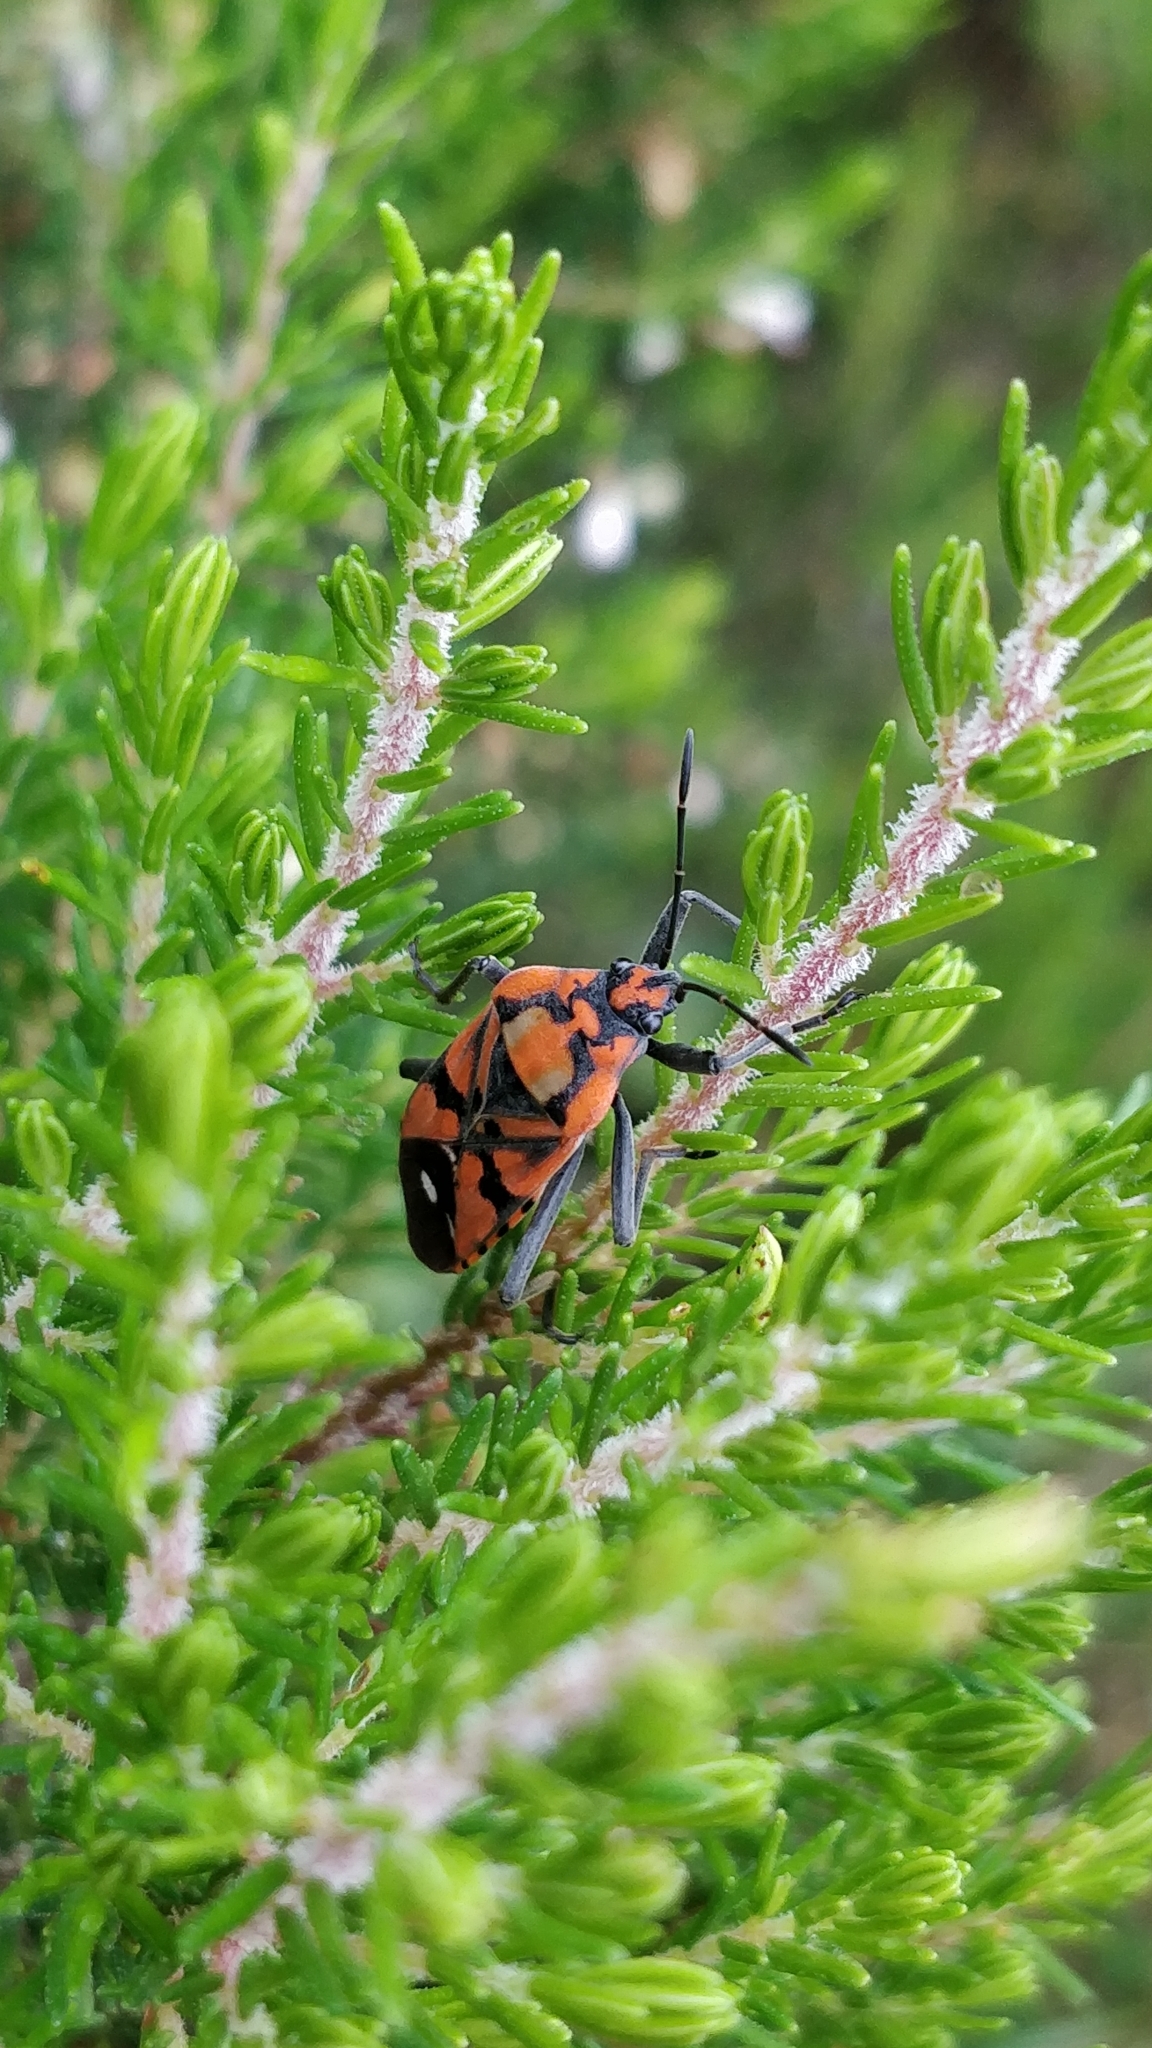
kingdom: Animalia
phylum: Arthropoda
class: Insecta
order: Hemiptera
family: Lygaeidae
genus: Spilostethus
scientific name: Spilostethus pandurus
